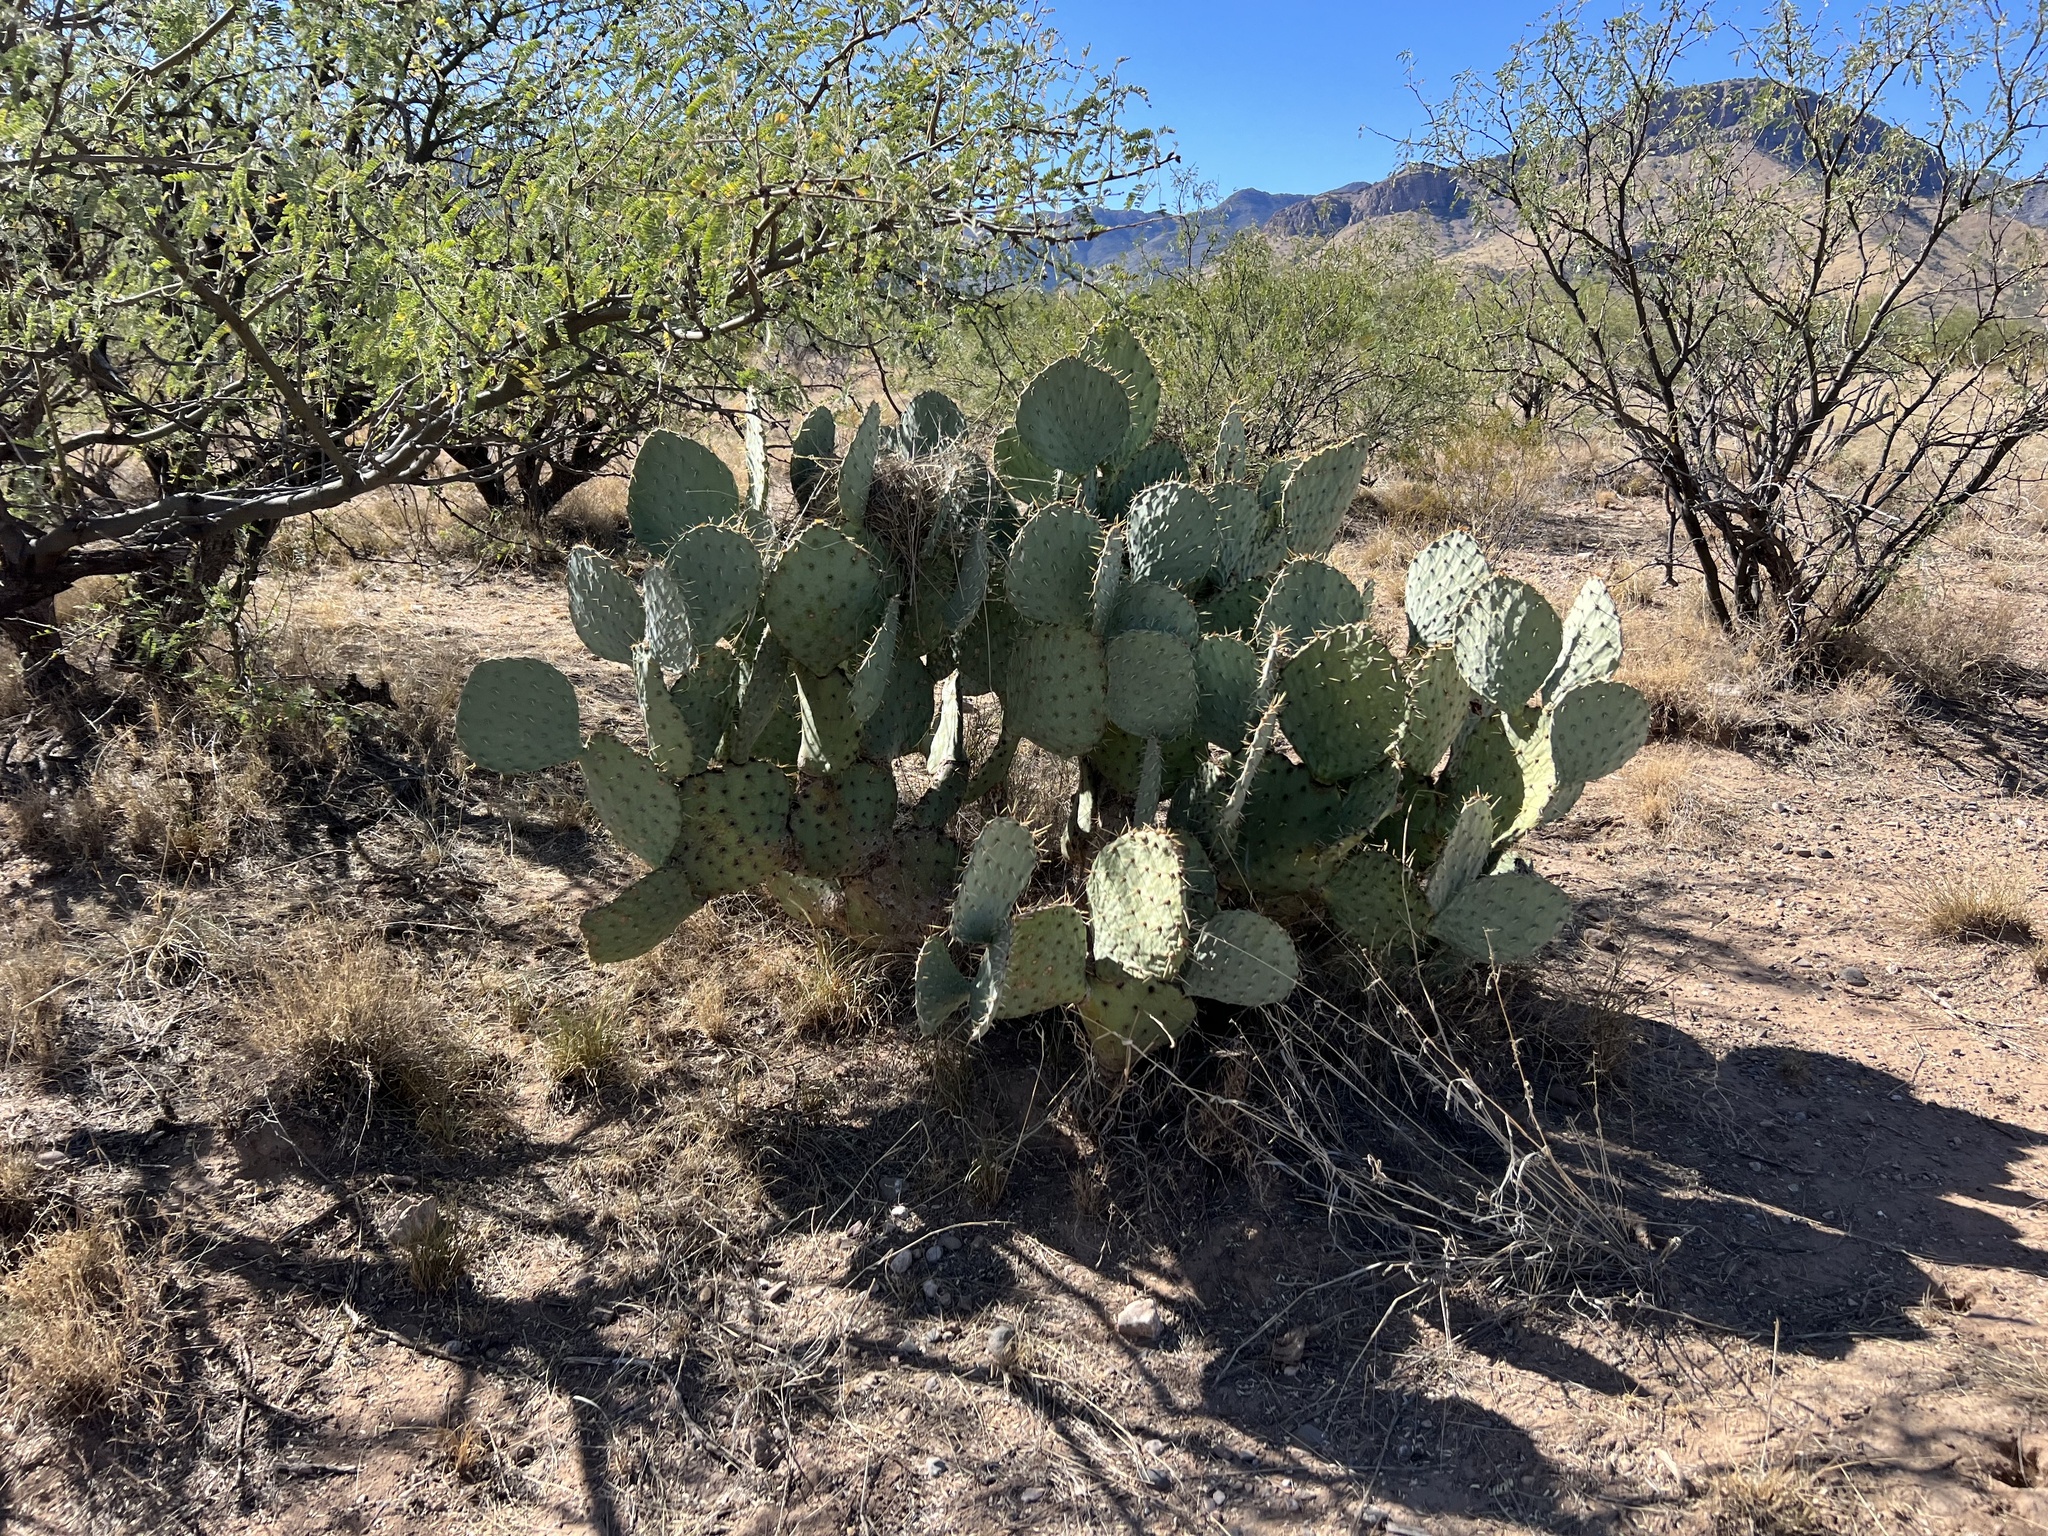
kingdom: Plantae
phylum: Tracheophyta
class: Magnoliopsida
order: Caryophyllales
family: Cactaceae
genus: Opuntia
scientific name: Opuntia engelmannii
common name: Cactus-apple
